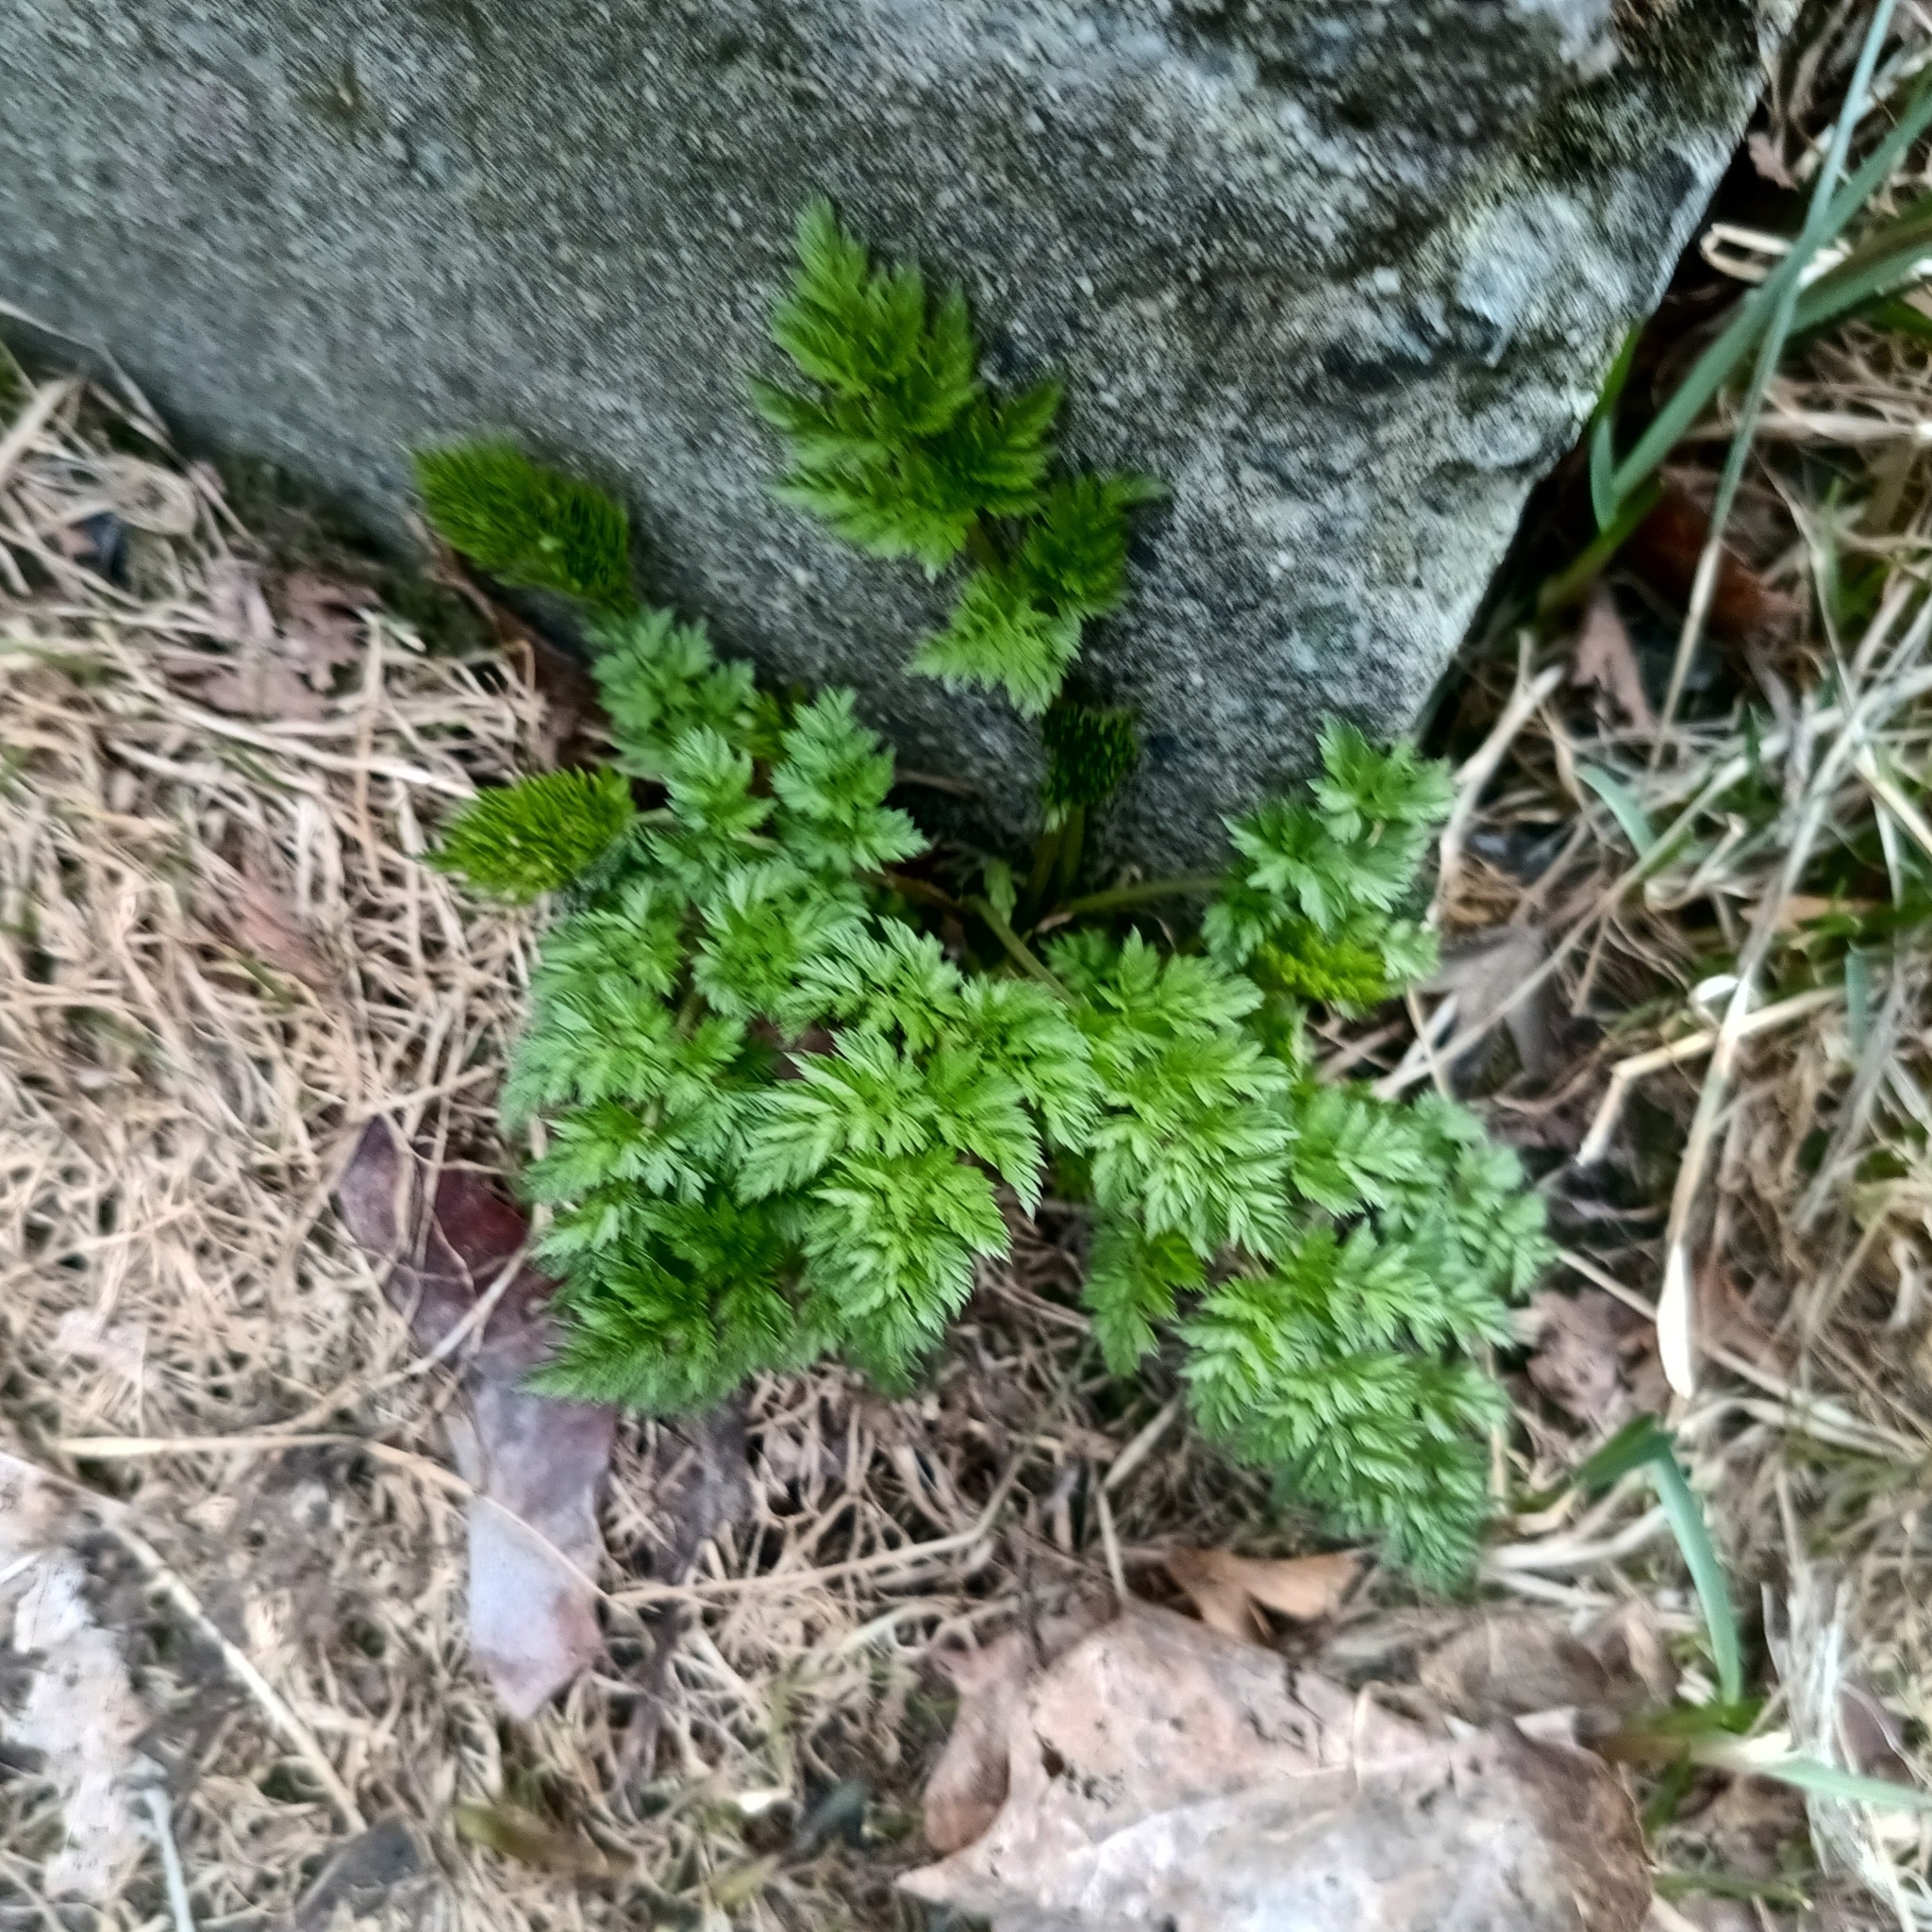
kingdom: Plantae
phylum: Tracheophyta
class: Magnoliopsida
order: Apiales
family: Apiaceae
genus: Anthriscus
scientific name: Anthriscus sylvestris
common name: Cow parsley
